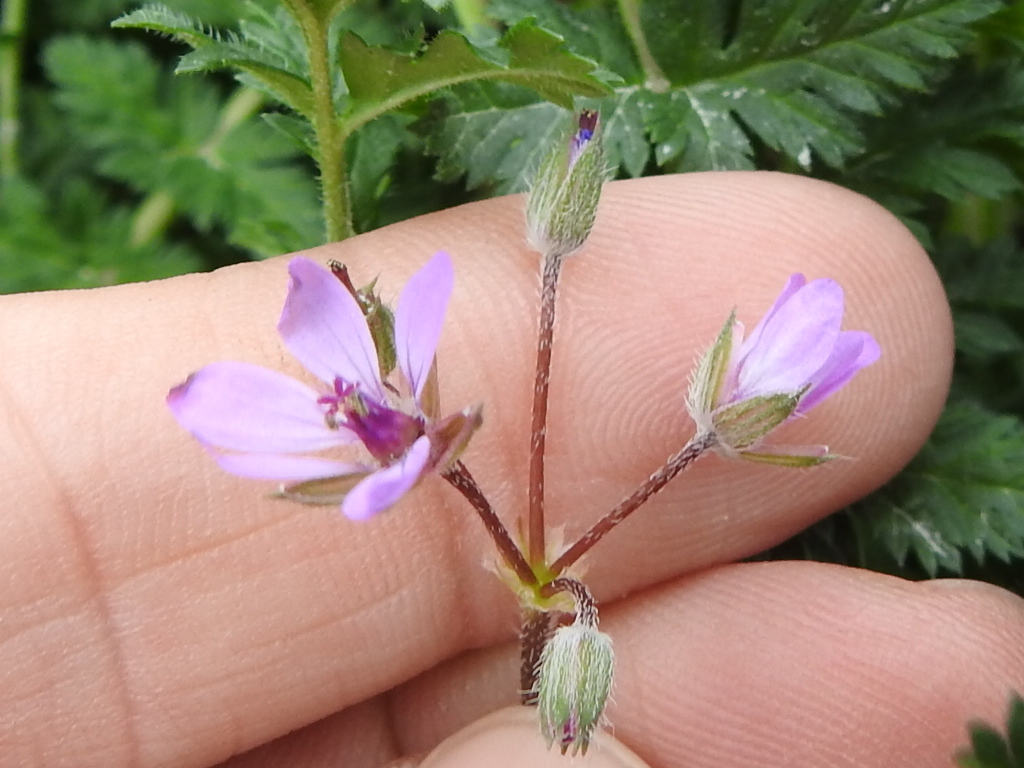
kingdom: Plantae
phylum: Tracheophyta
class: Magnoliopsida
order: Geraniales
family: Geraniaceae
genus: Erodium
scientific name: Erodium cicutarium
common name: Common stork's-bill
